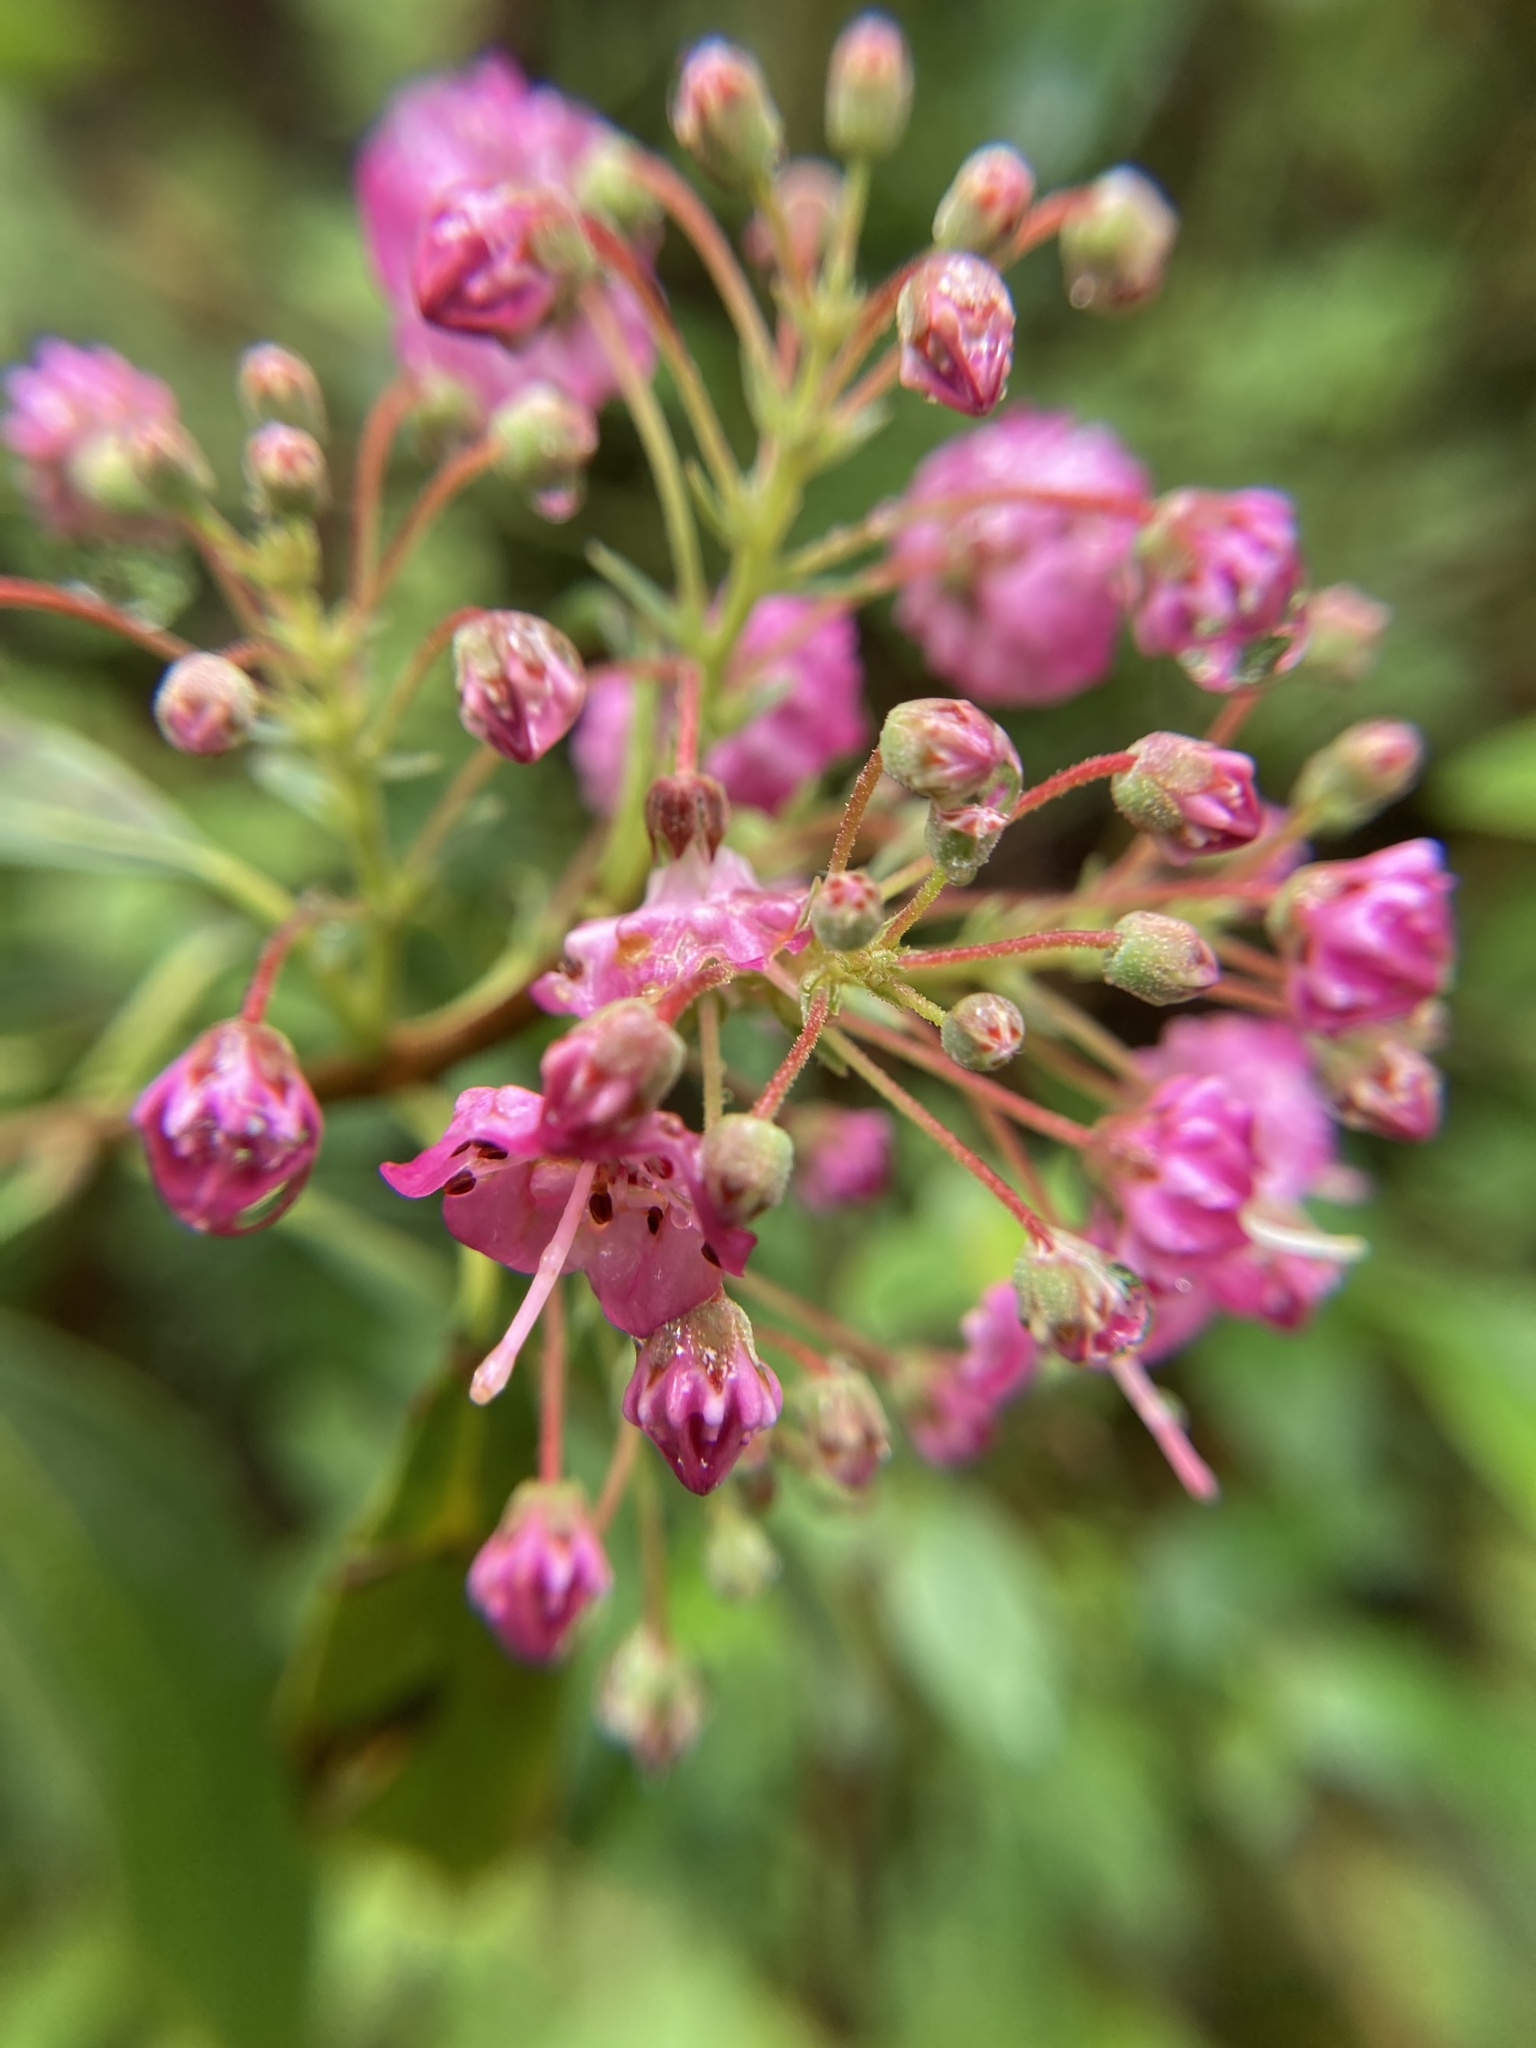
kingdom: Plantae
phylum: Tracheophyta
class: Magnoliopsida
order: Ericales
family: Ericaceae
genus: Kalmia
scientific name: Kalmia angustifolia
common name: Sheep-laurel
